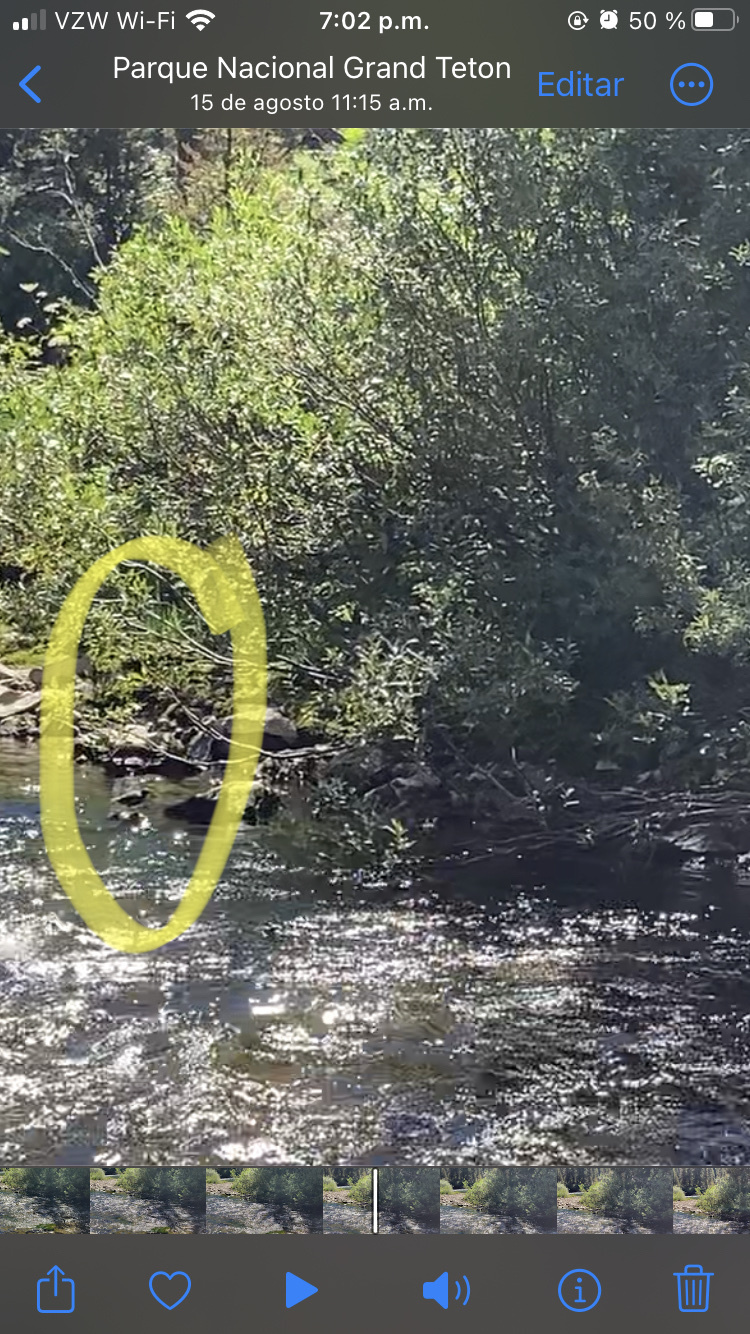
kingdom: Animalia
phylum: Chordata
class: Aves
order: Passeriformes
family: Cinclidae
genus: Cinclus
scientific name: Cinclus mexicanus
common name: American dipper
